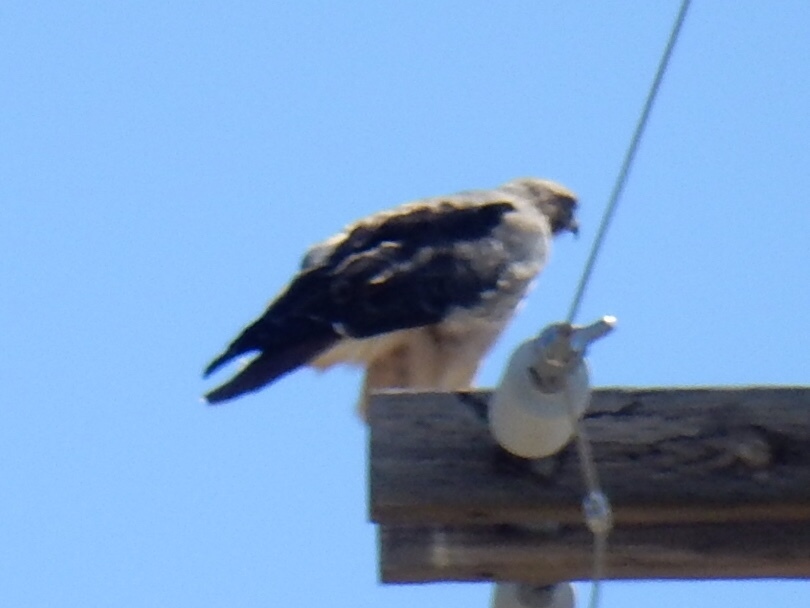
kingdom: Animalia
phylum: Chordata
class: Aves
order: Accipitriformes
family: Accipitridae
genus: Buteo
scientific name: Buteo jamaicensis
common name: Red-tailed hawk
